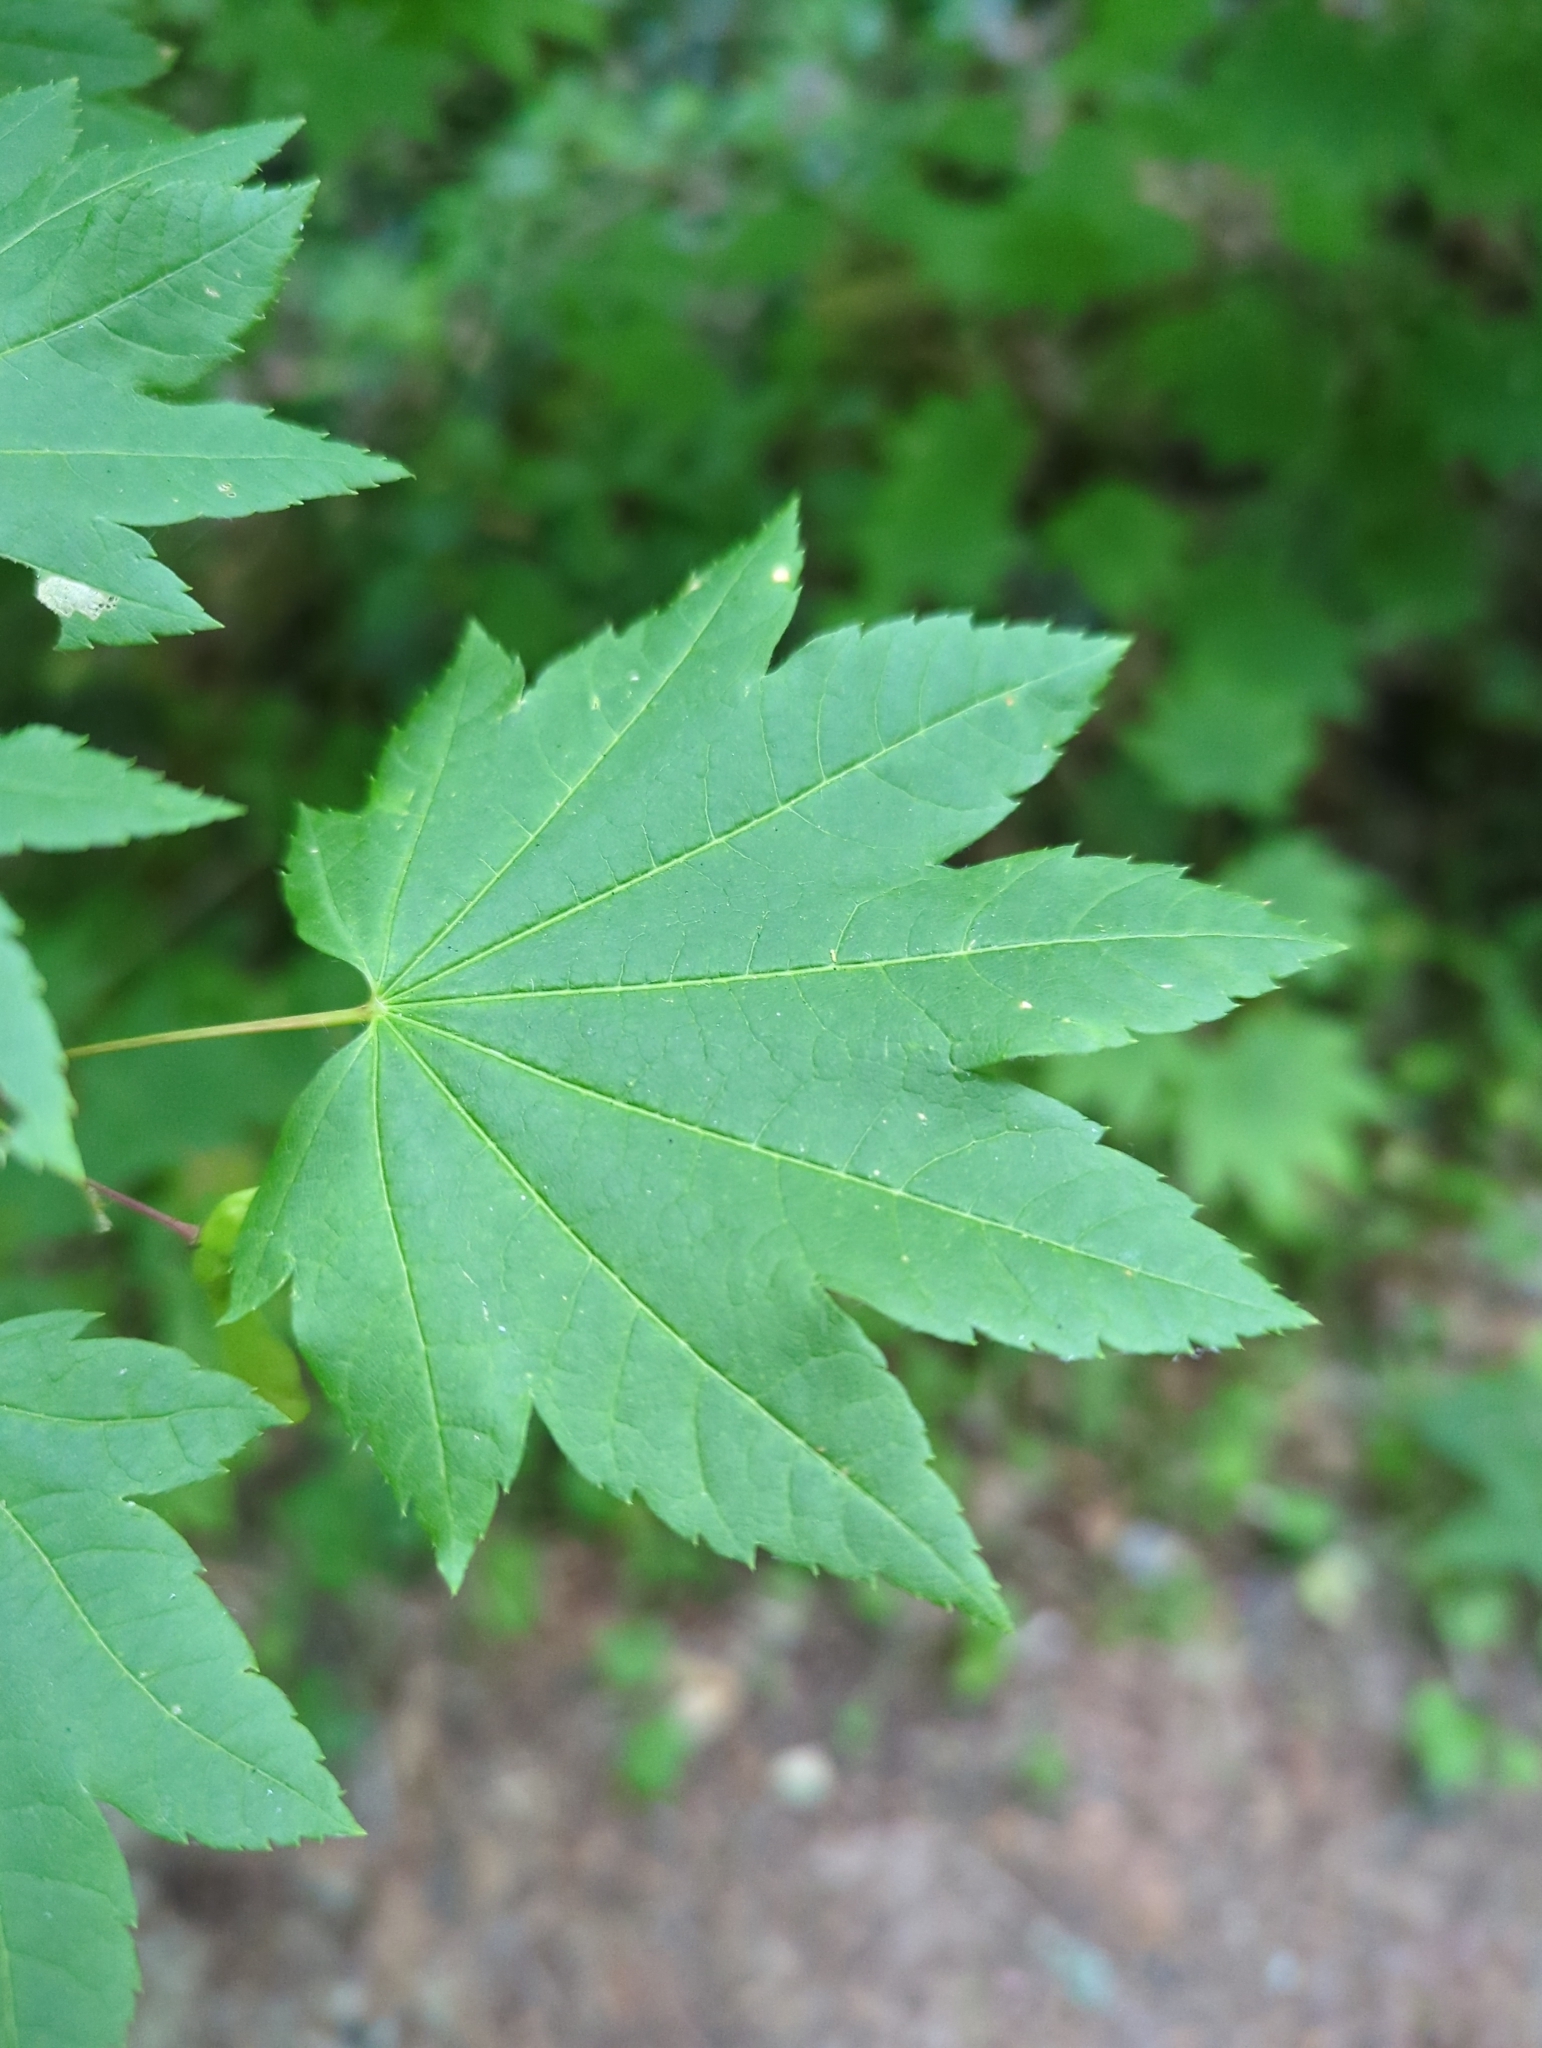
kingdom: Plantae
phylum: Tracheophyta
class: Magnoliopsida
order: Sapindales
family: Sapindaceae
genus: Acer
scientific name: Acer circinatum
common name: Vine maple
